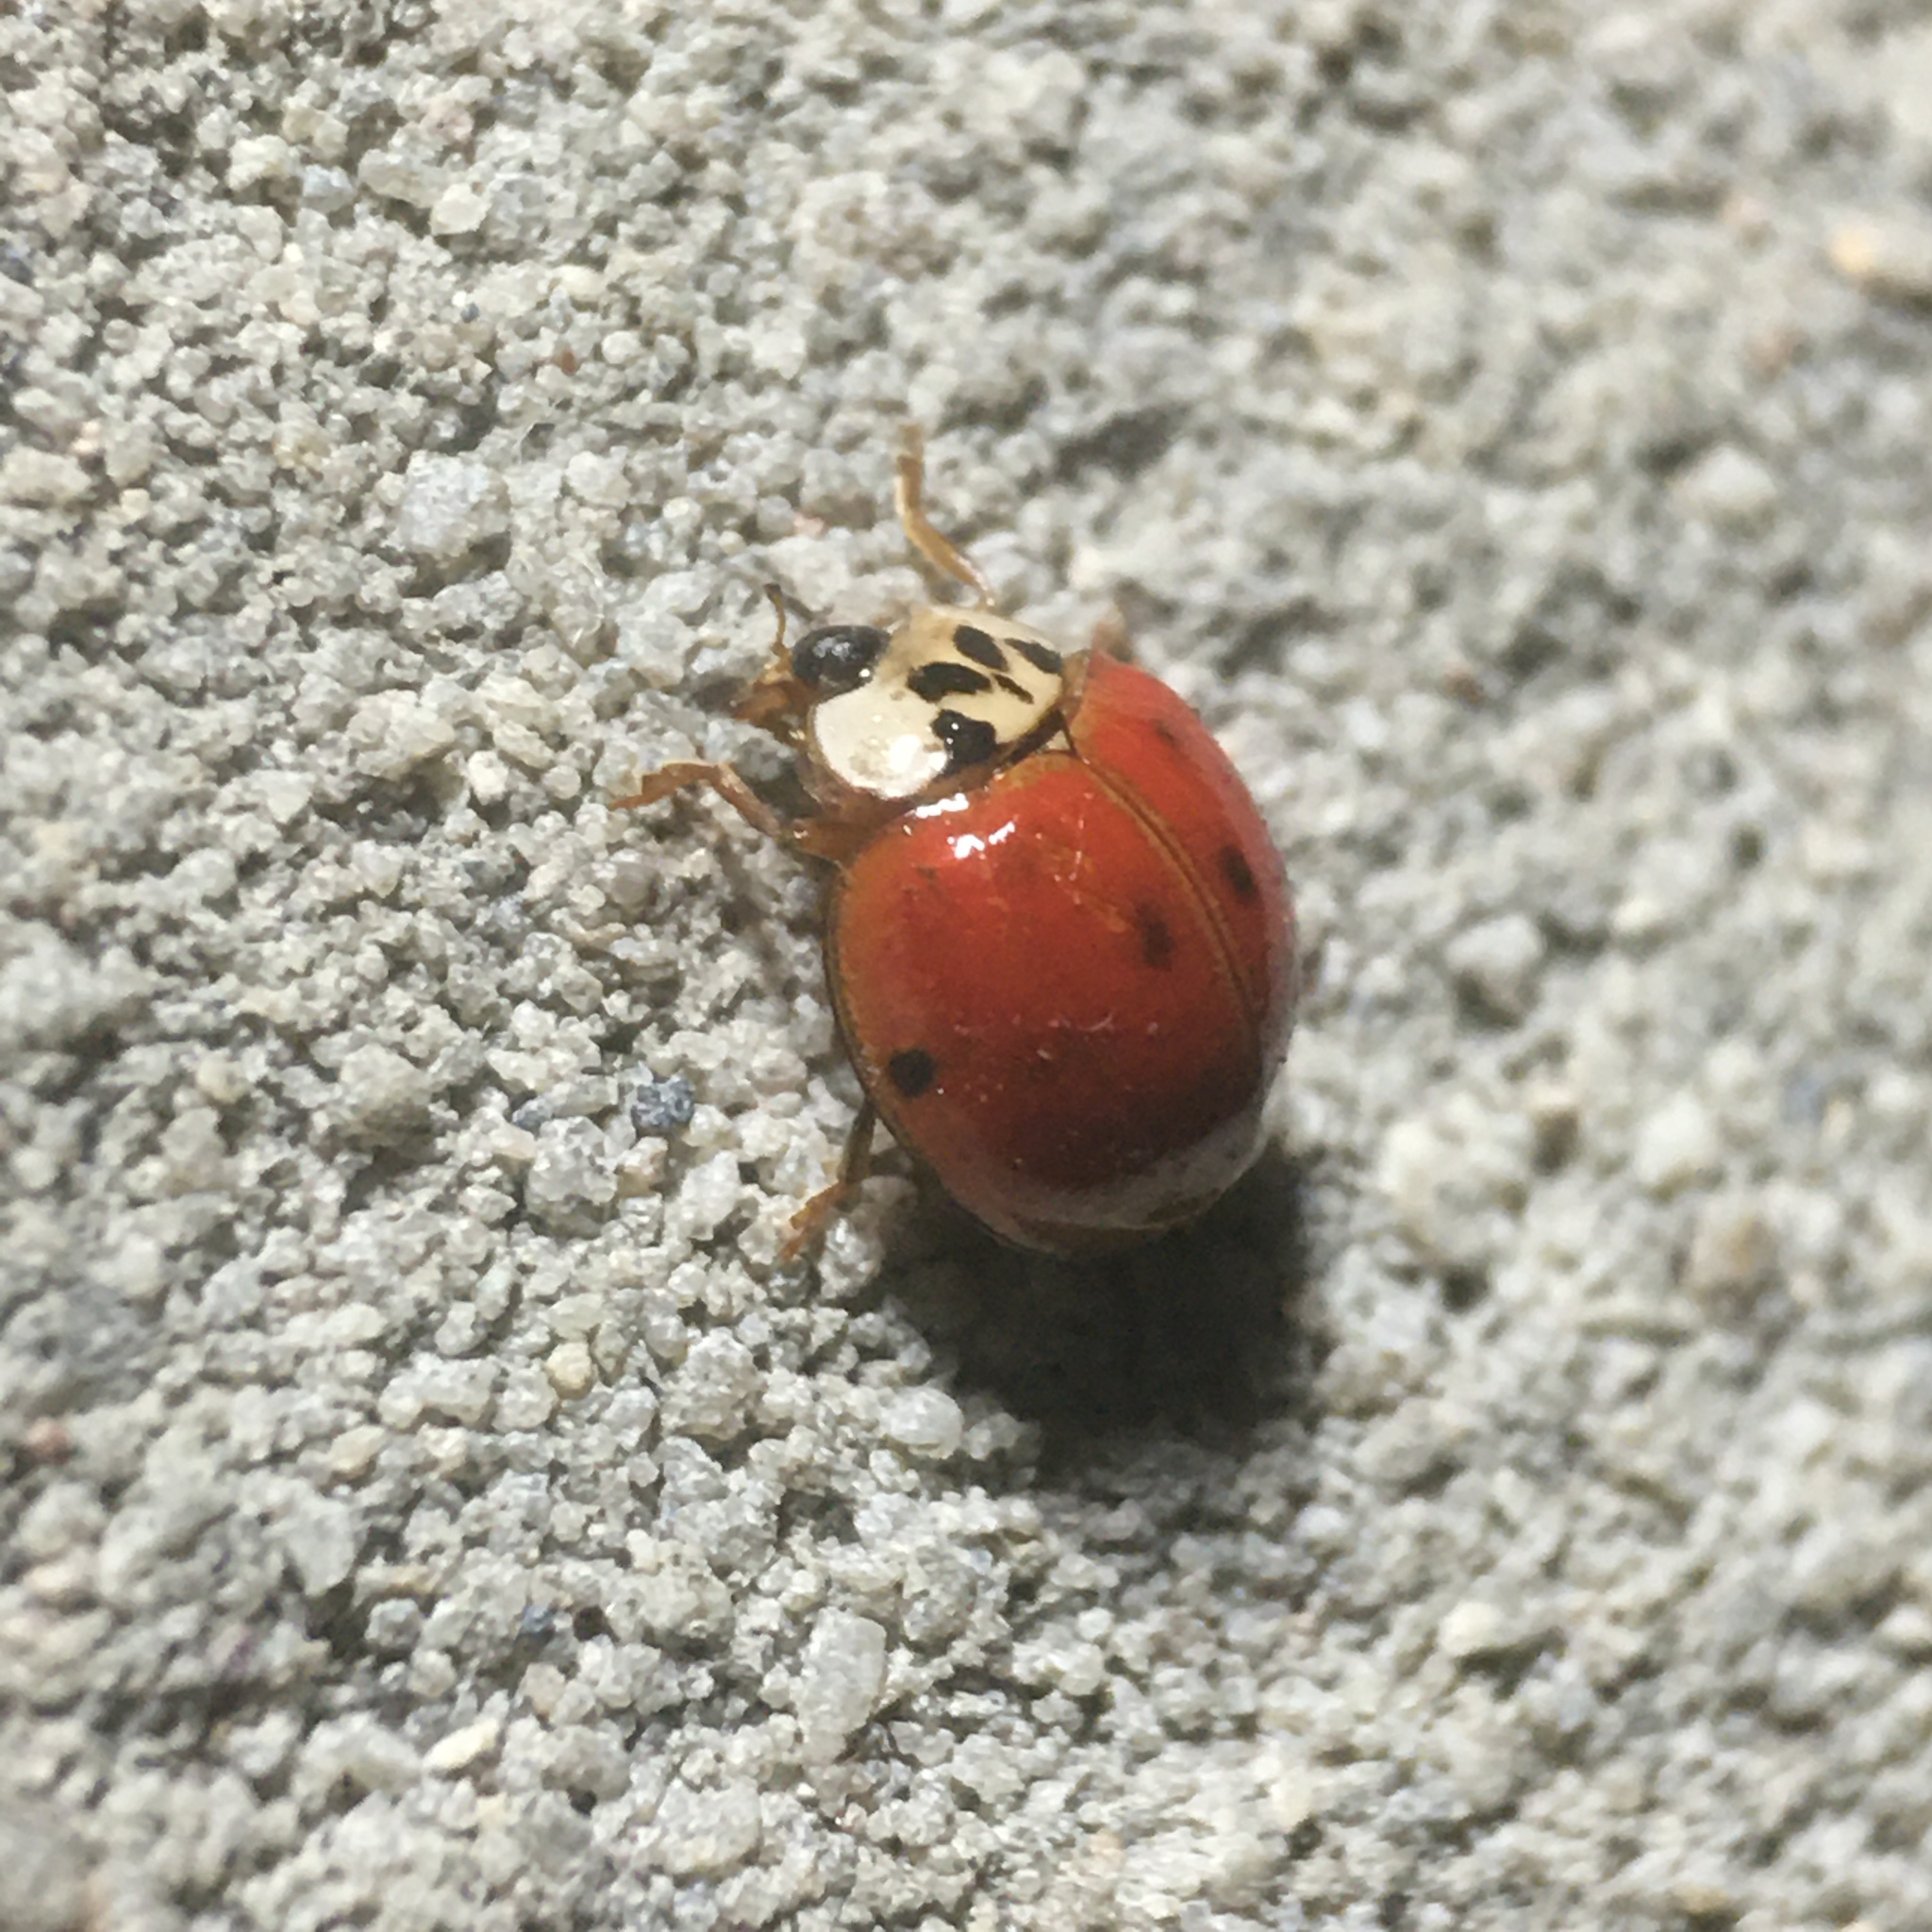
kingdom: Animalia
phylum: Arthropoda
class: Insecta
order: Coleoptera
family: Coccinellidae
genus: Harmonia
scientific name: Harmonia axyridis
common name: Harlequin ladybird
